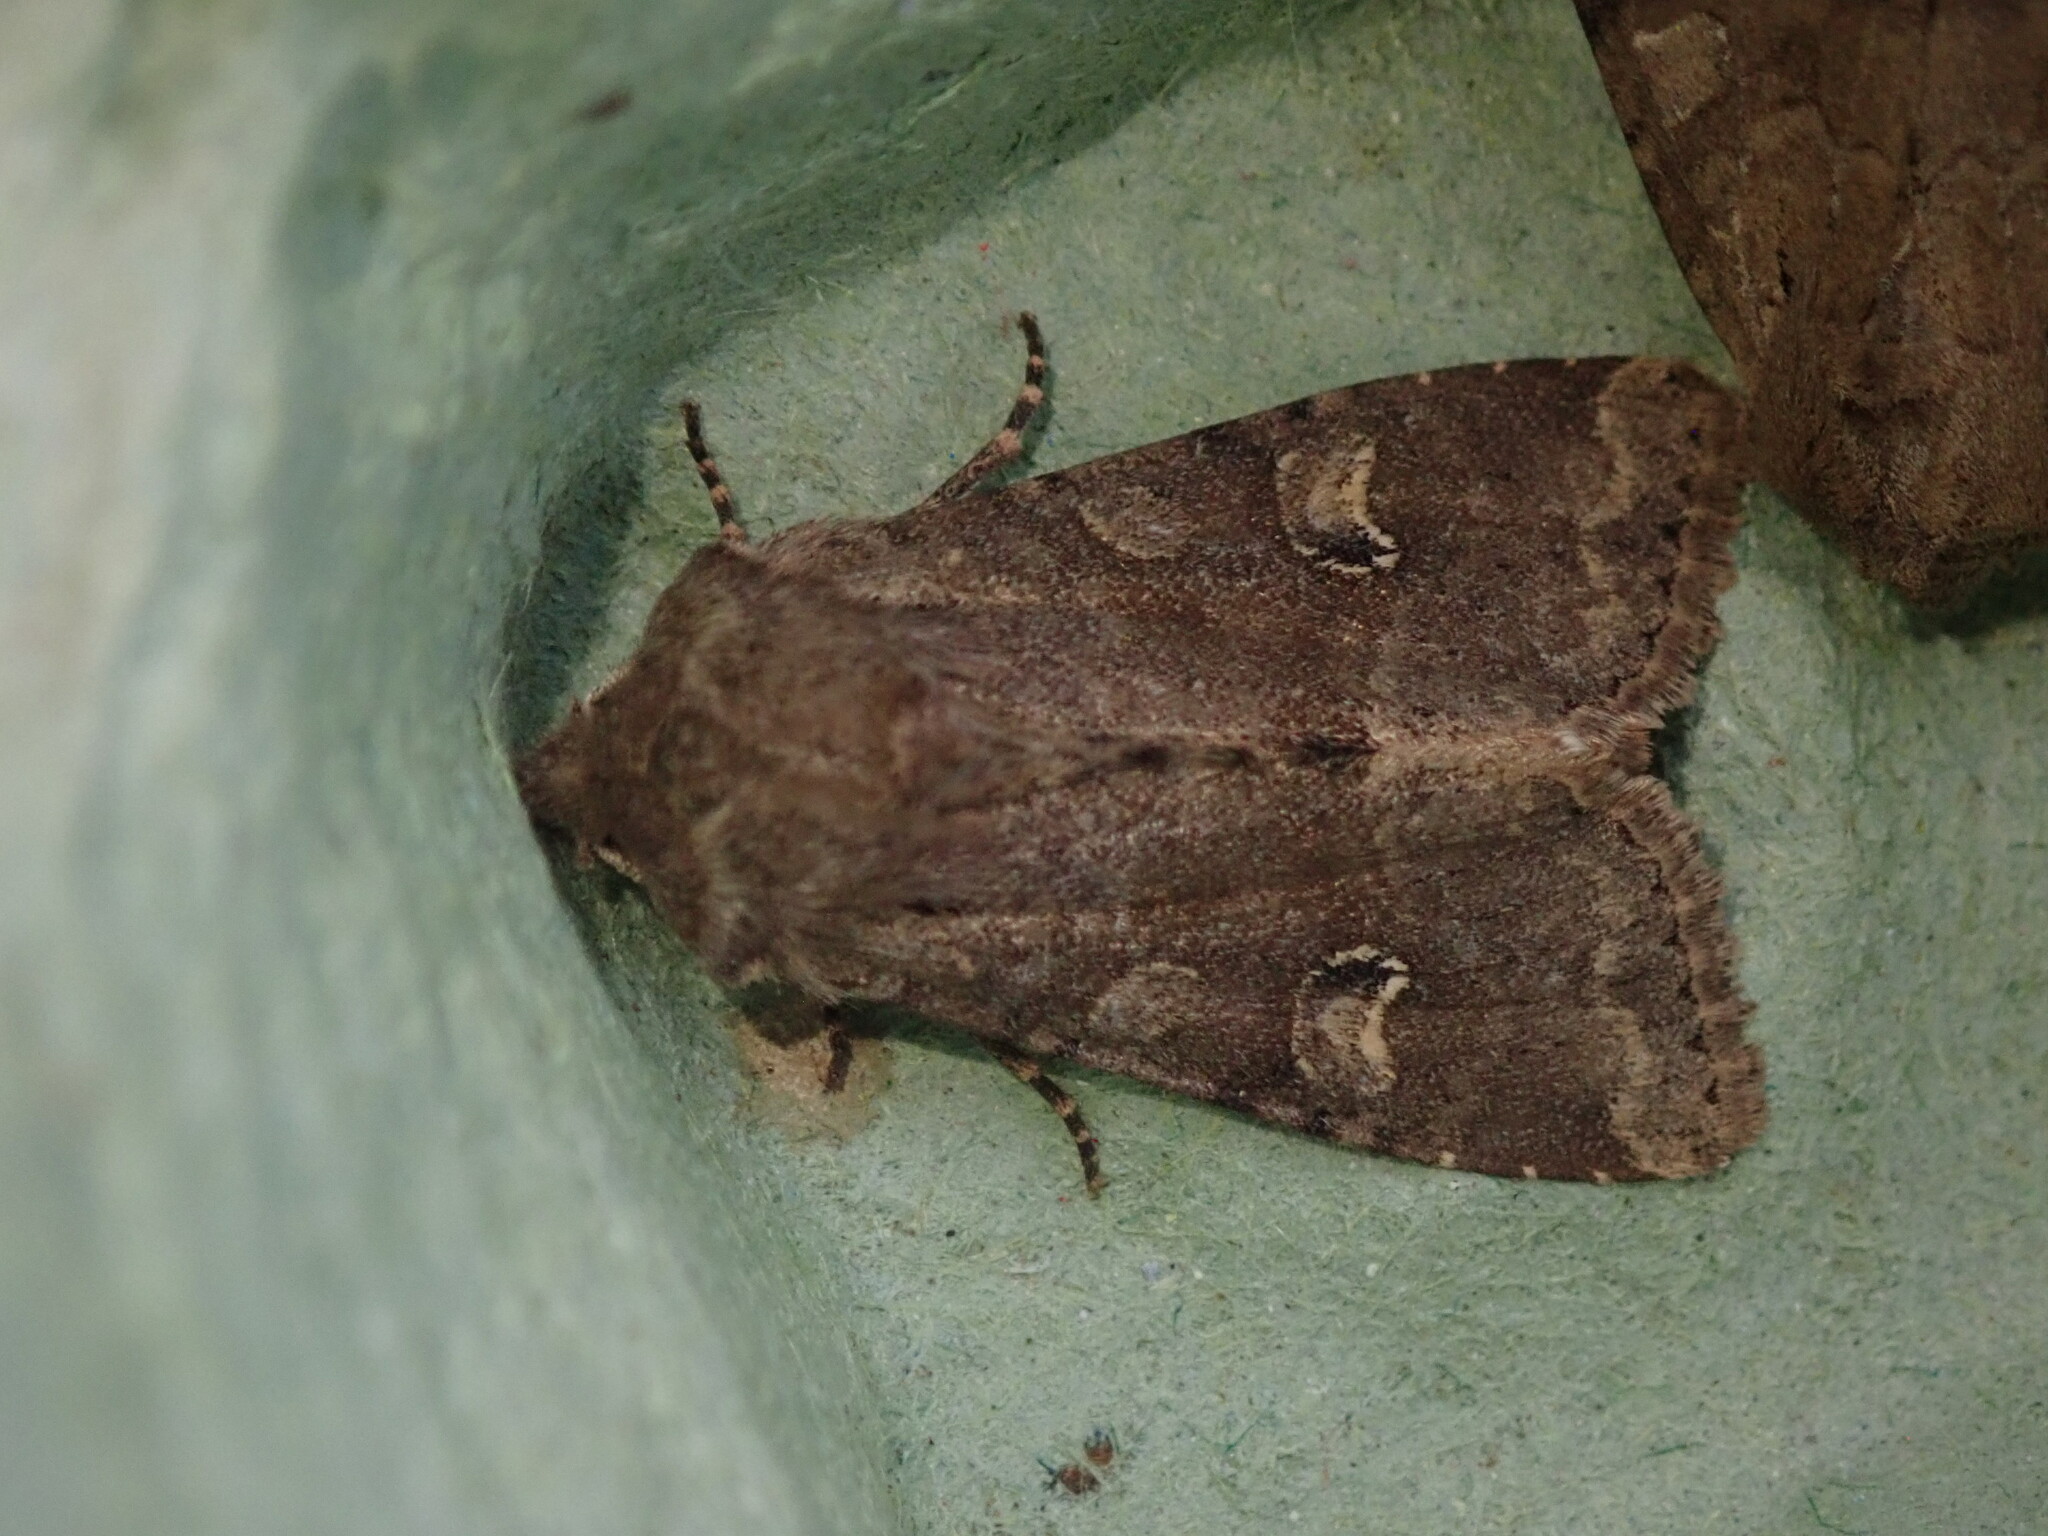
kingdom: Animalia
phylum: Arthropoda
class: Insecta
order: Lepidoptera
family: Noctuidae
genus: Apamea
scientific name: Apamea sordens
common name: Rustic shoulder-knot
